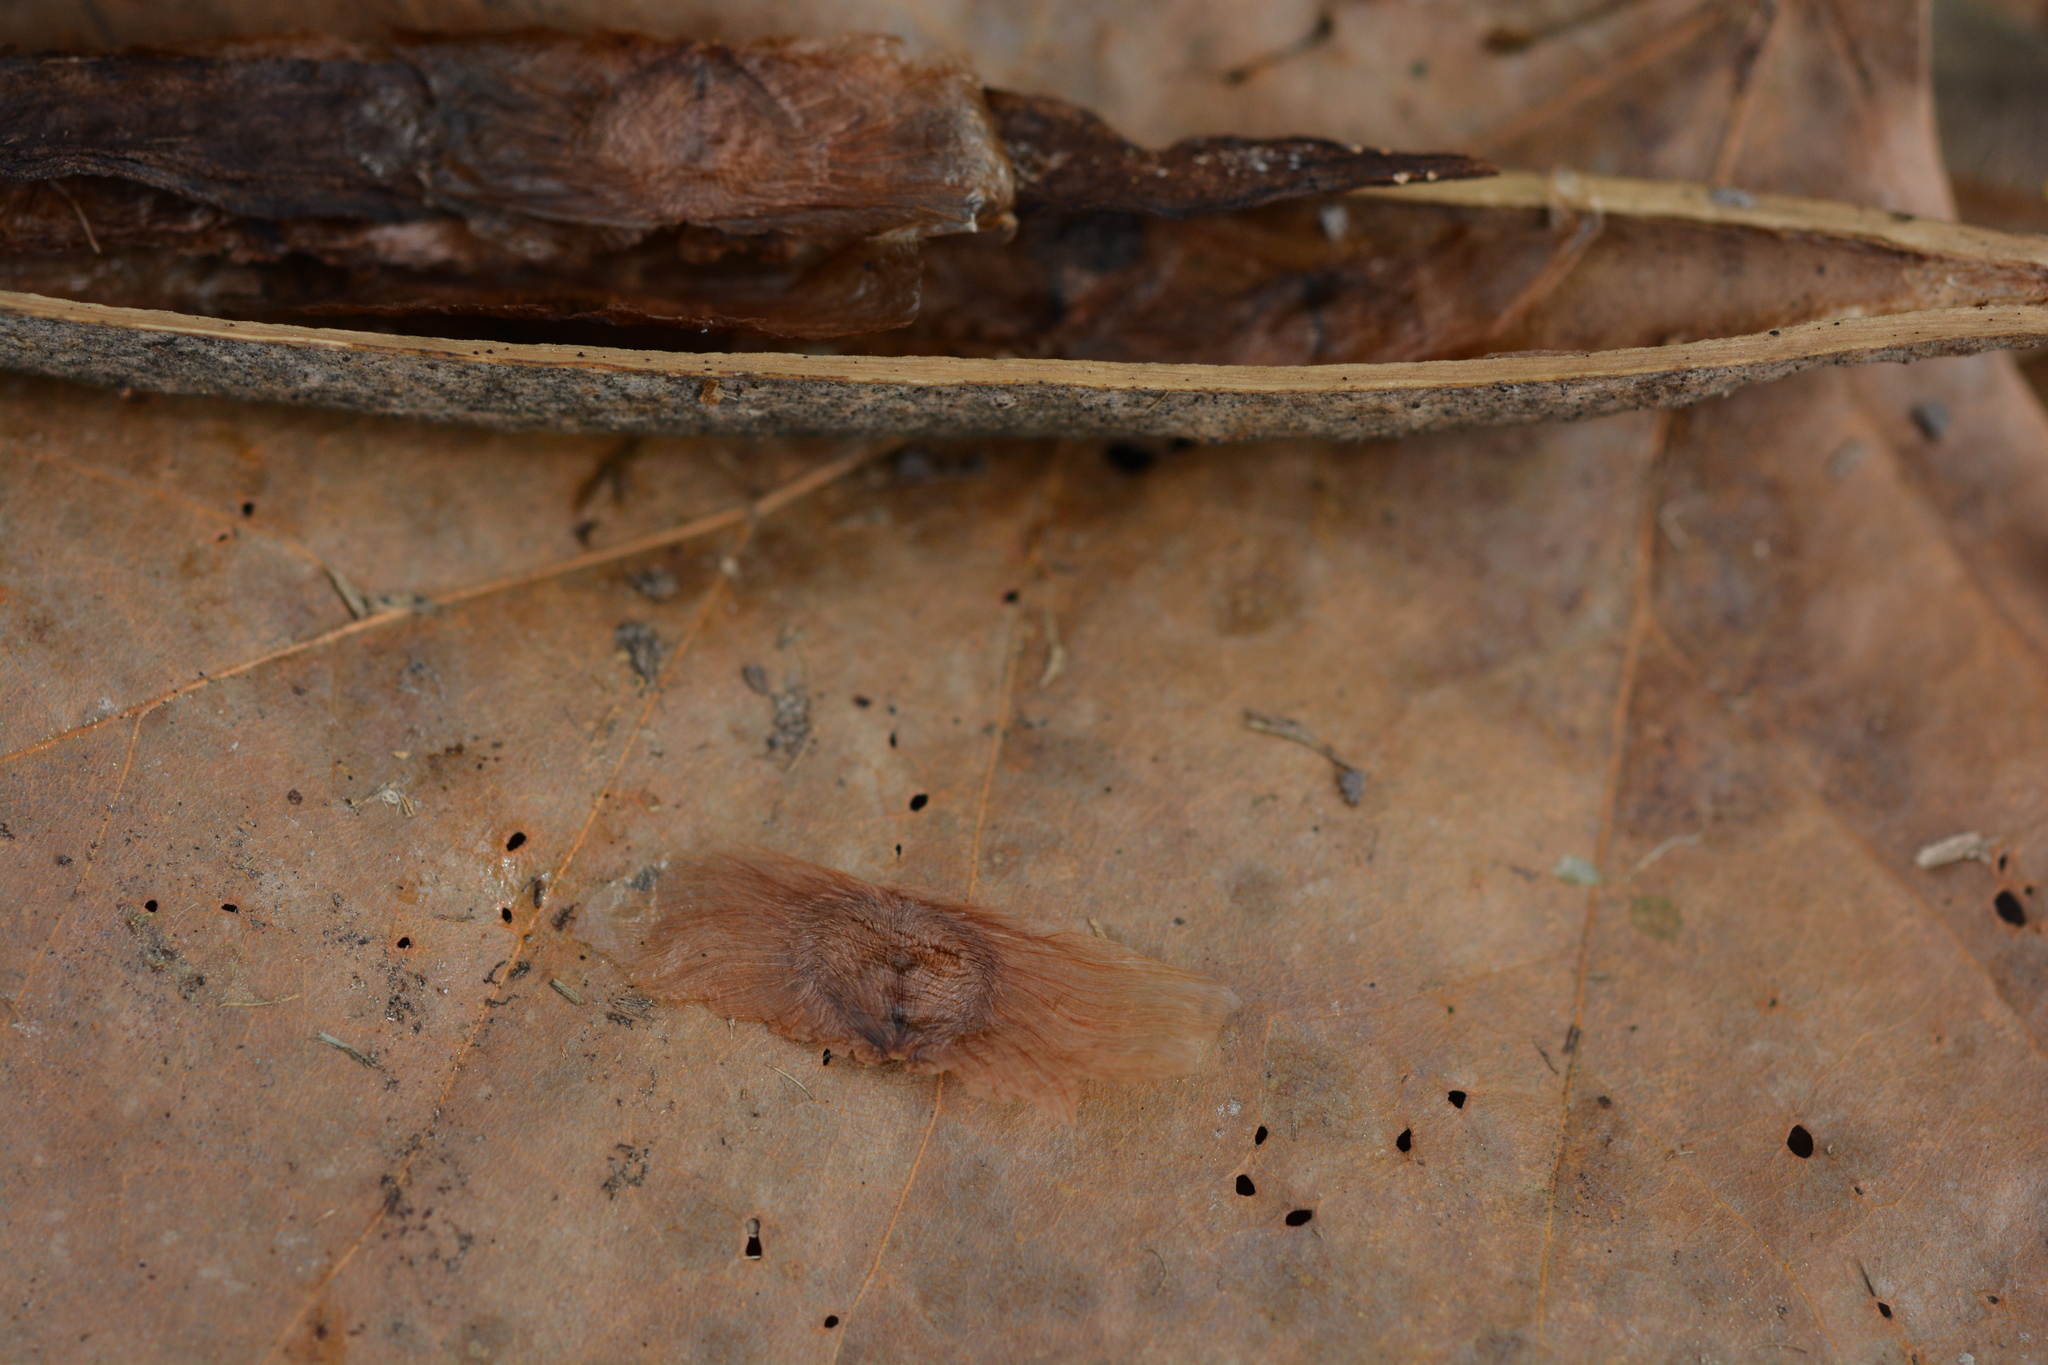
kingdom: Plantae
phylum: Tracheophyta
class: Magnoliopsida
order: Lamiales
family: Bignoniaceae
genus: Campsis
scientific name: Campsis radicans
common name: Trumpet-creeper
